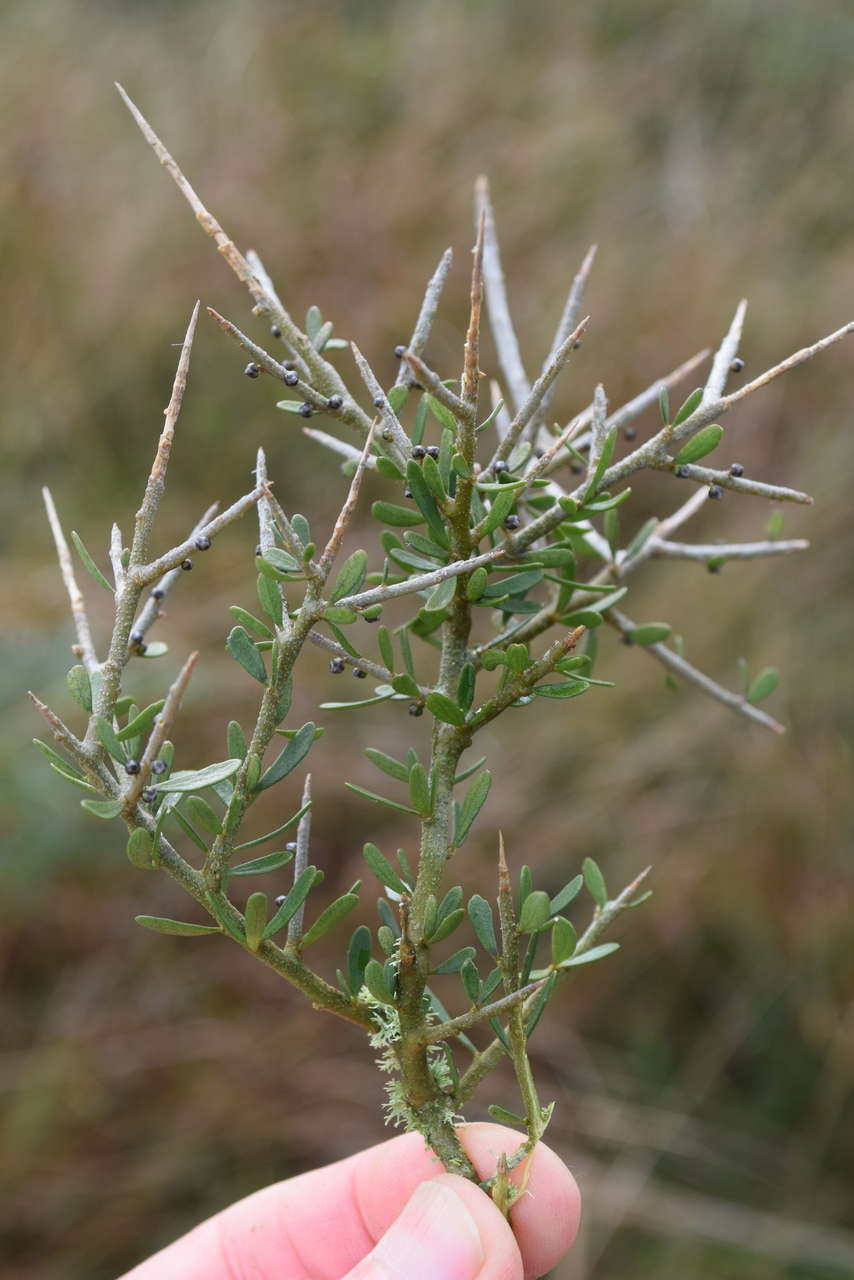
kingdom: Plantae
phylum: Tracheophyta
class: Magnoliopsida
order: Malpighiales
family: Violaceae
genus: Melicytus
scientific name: Melicytus dentatus
